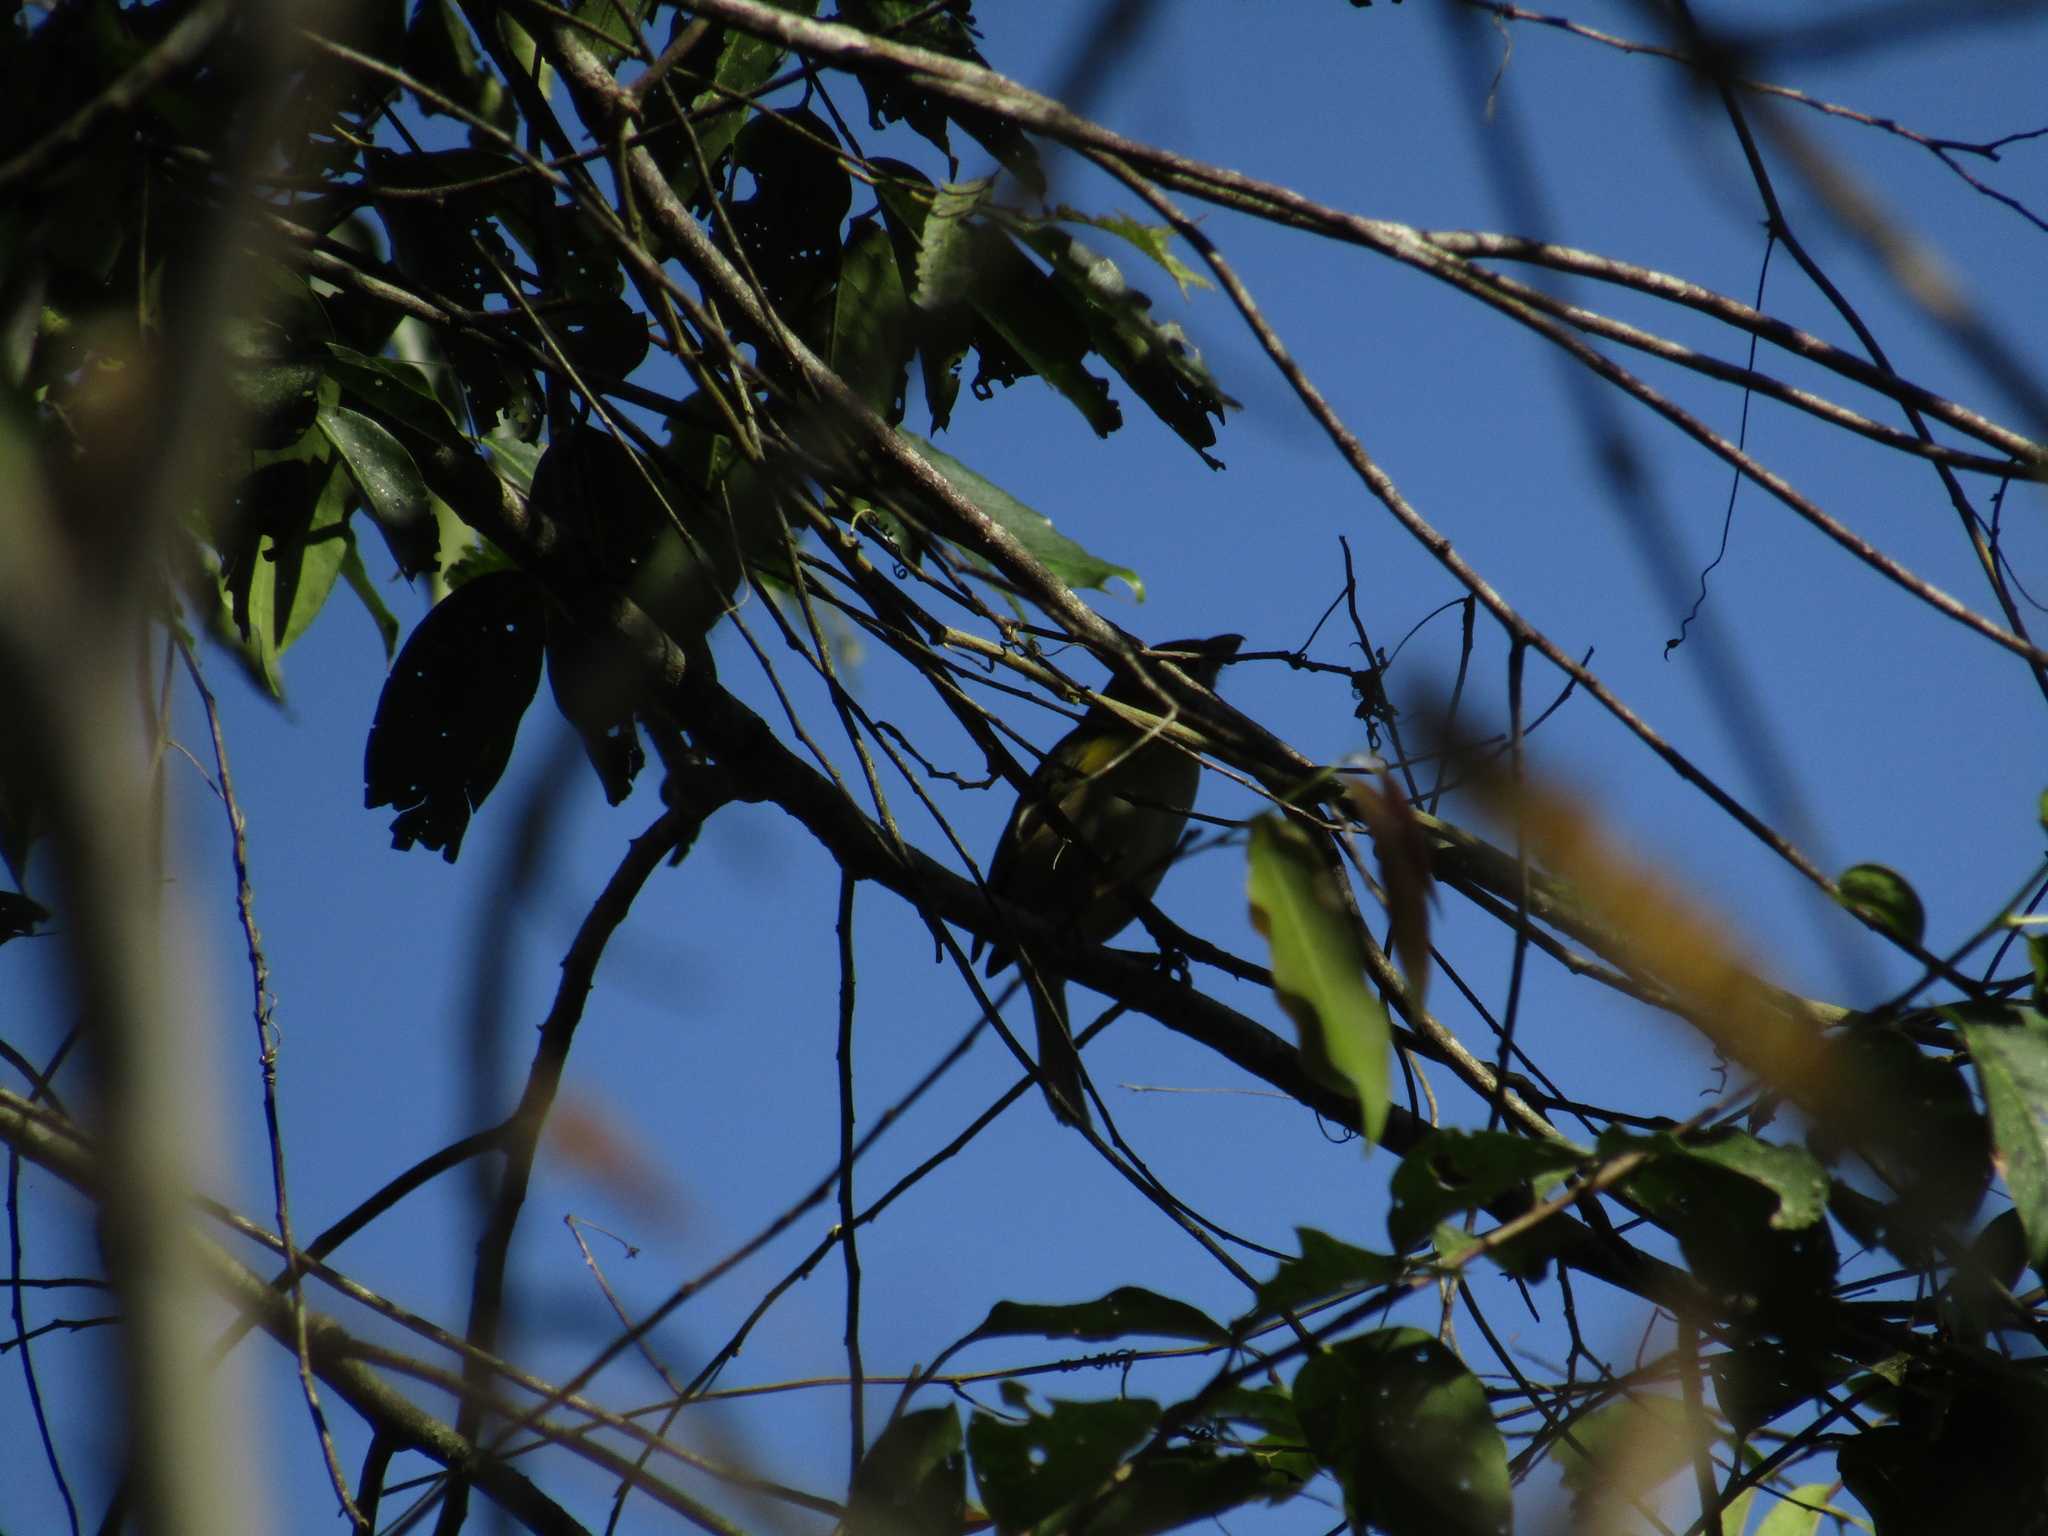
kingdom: Animalia
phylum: Chordata
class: Aves
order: Passeriformes
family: Vireonidae
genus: Cyclarhis
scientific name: Cyclarhis gujanensis
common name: Rufous-browed peppershrike
